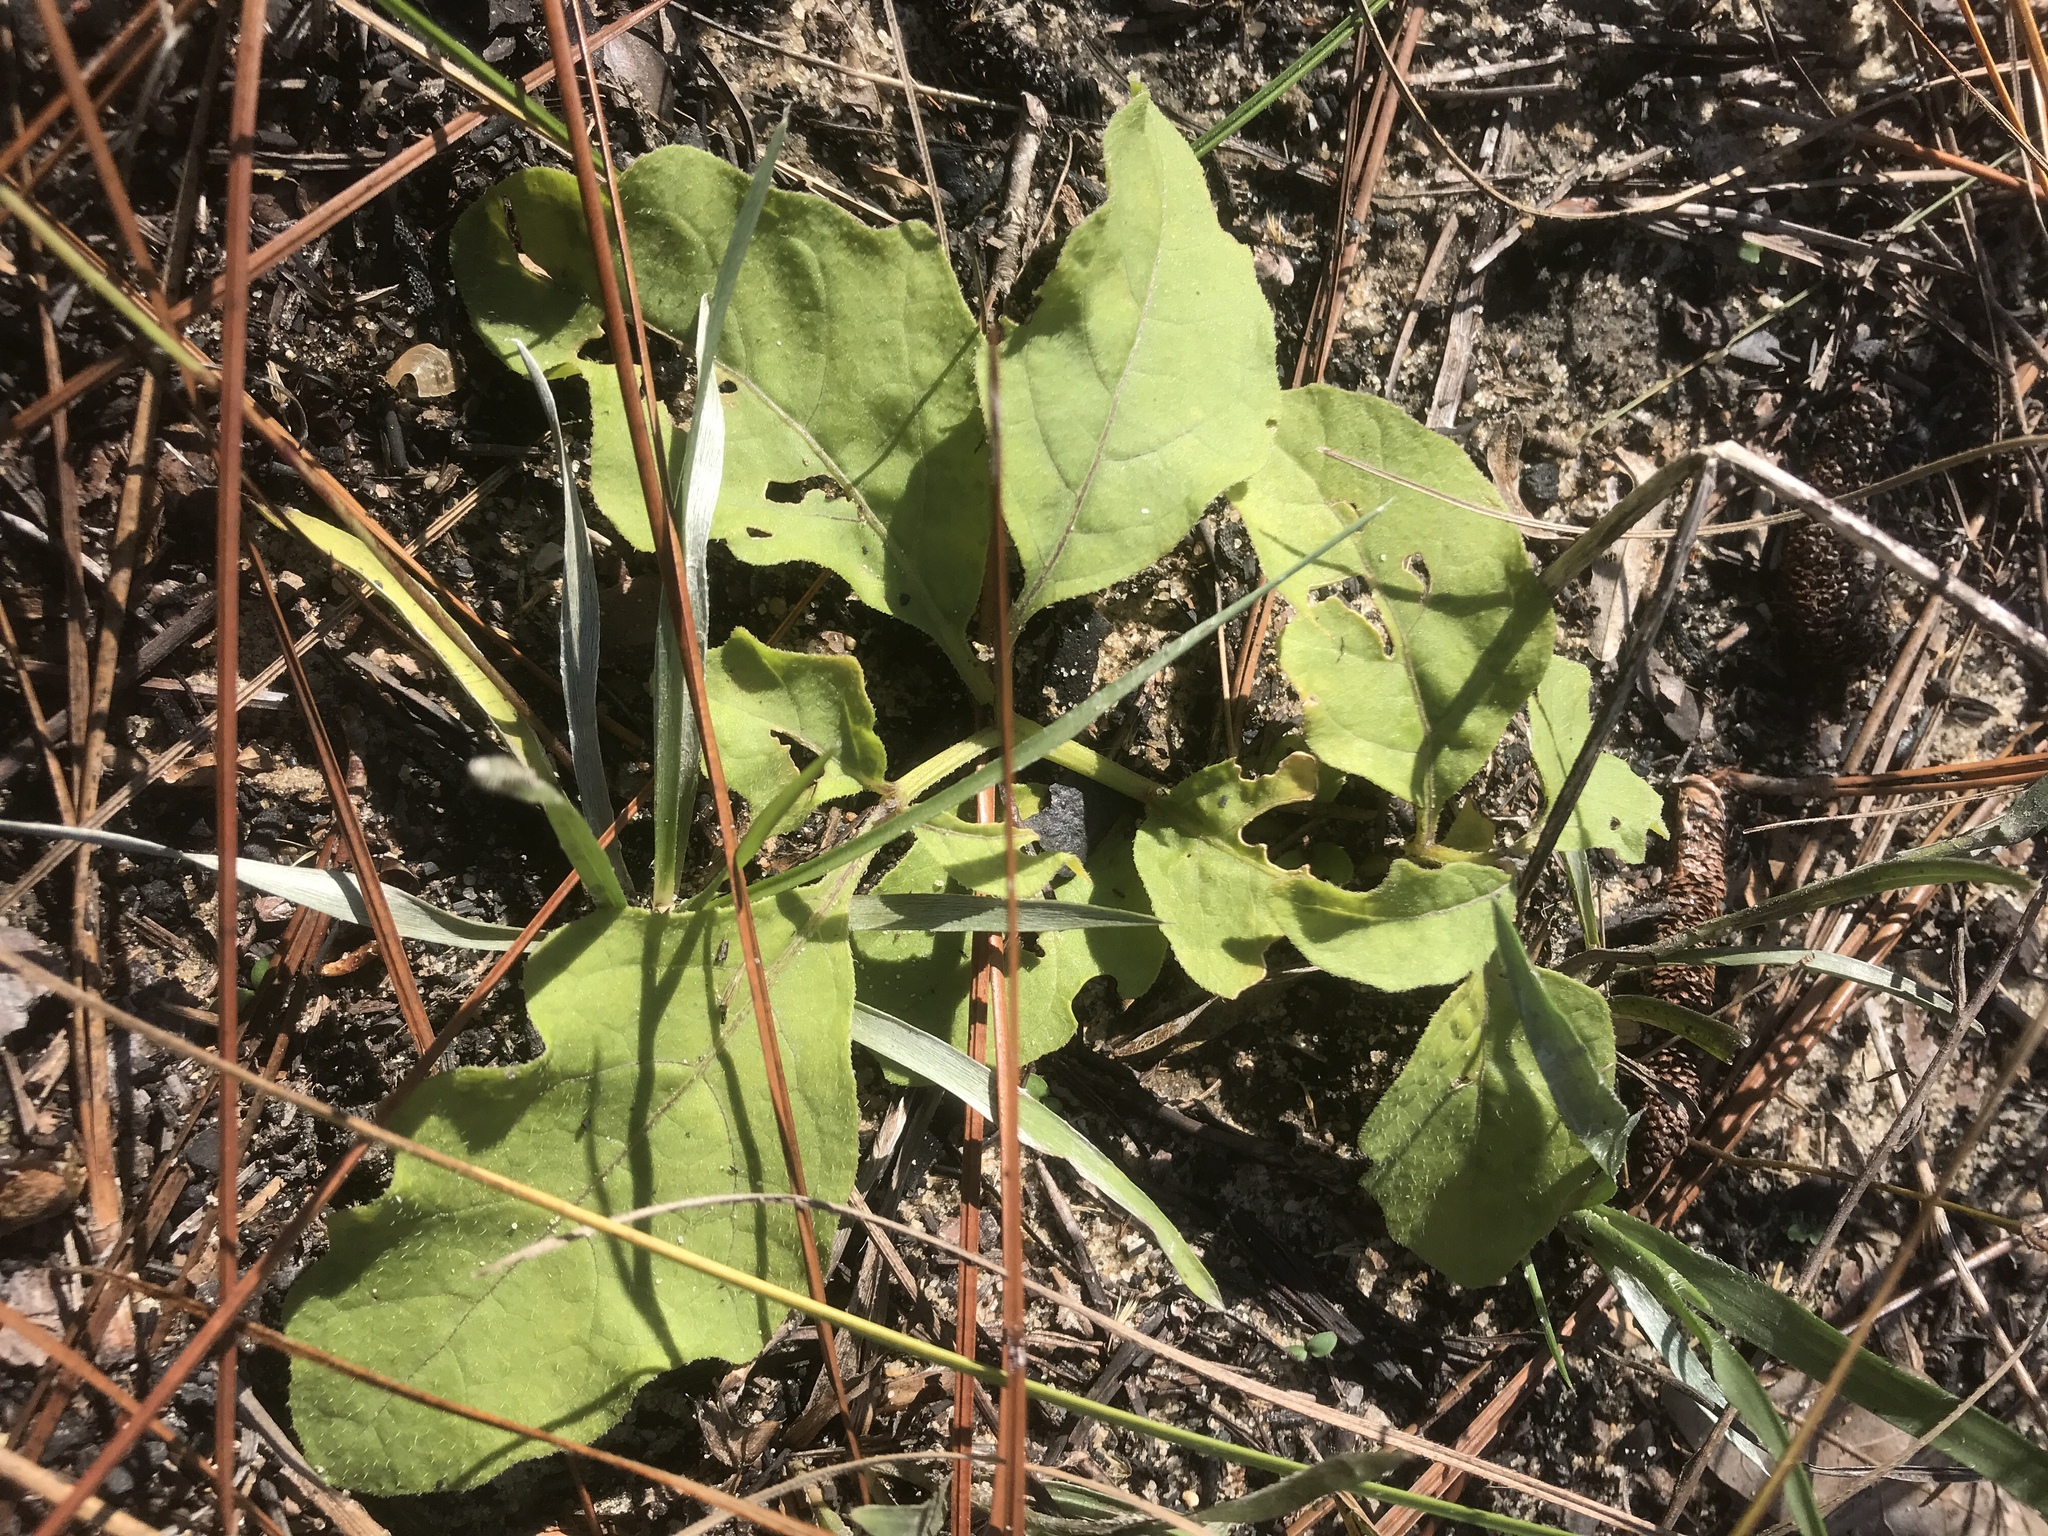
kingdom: Plantae
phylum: Tracheophyta
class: Magnoliopsida
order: Solanales
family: Solanaceae
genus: Physalis
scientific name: Physalis lanceolata
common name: Lance-leaved ground-cherry
